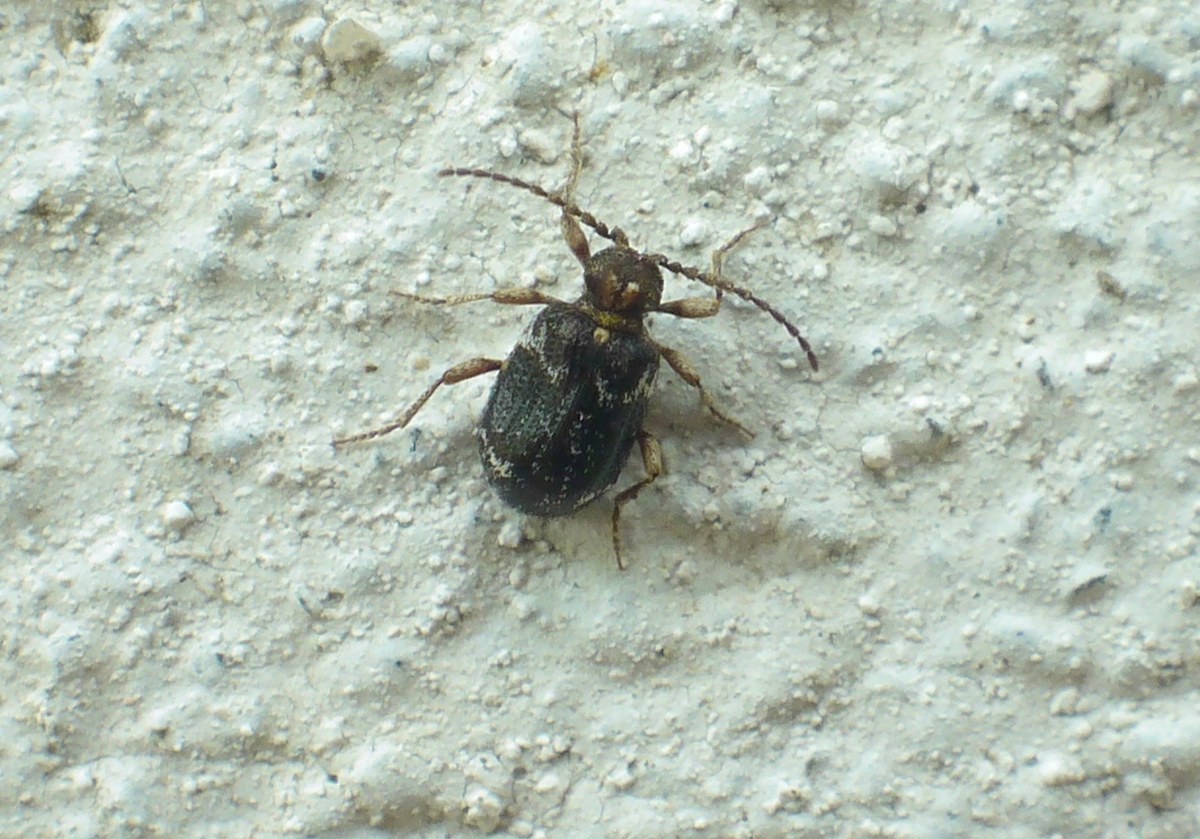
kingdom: Animalia
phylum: Arthropoda
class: Insecta
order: Coleoptera
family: Ptinidae
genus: Ptinus
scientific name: Ptinus variegatus
